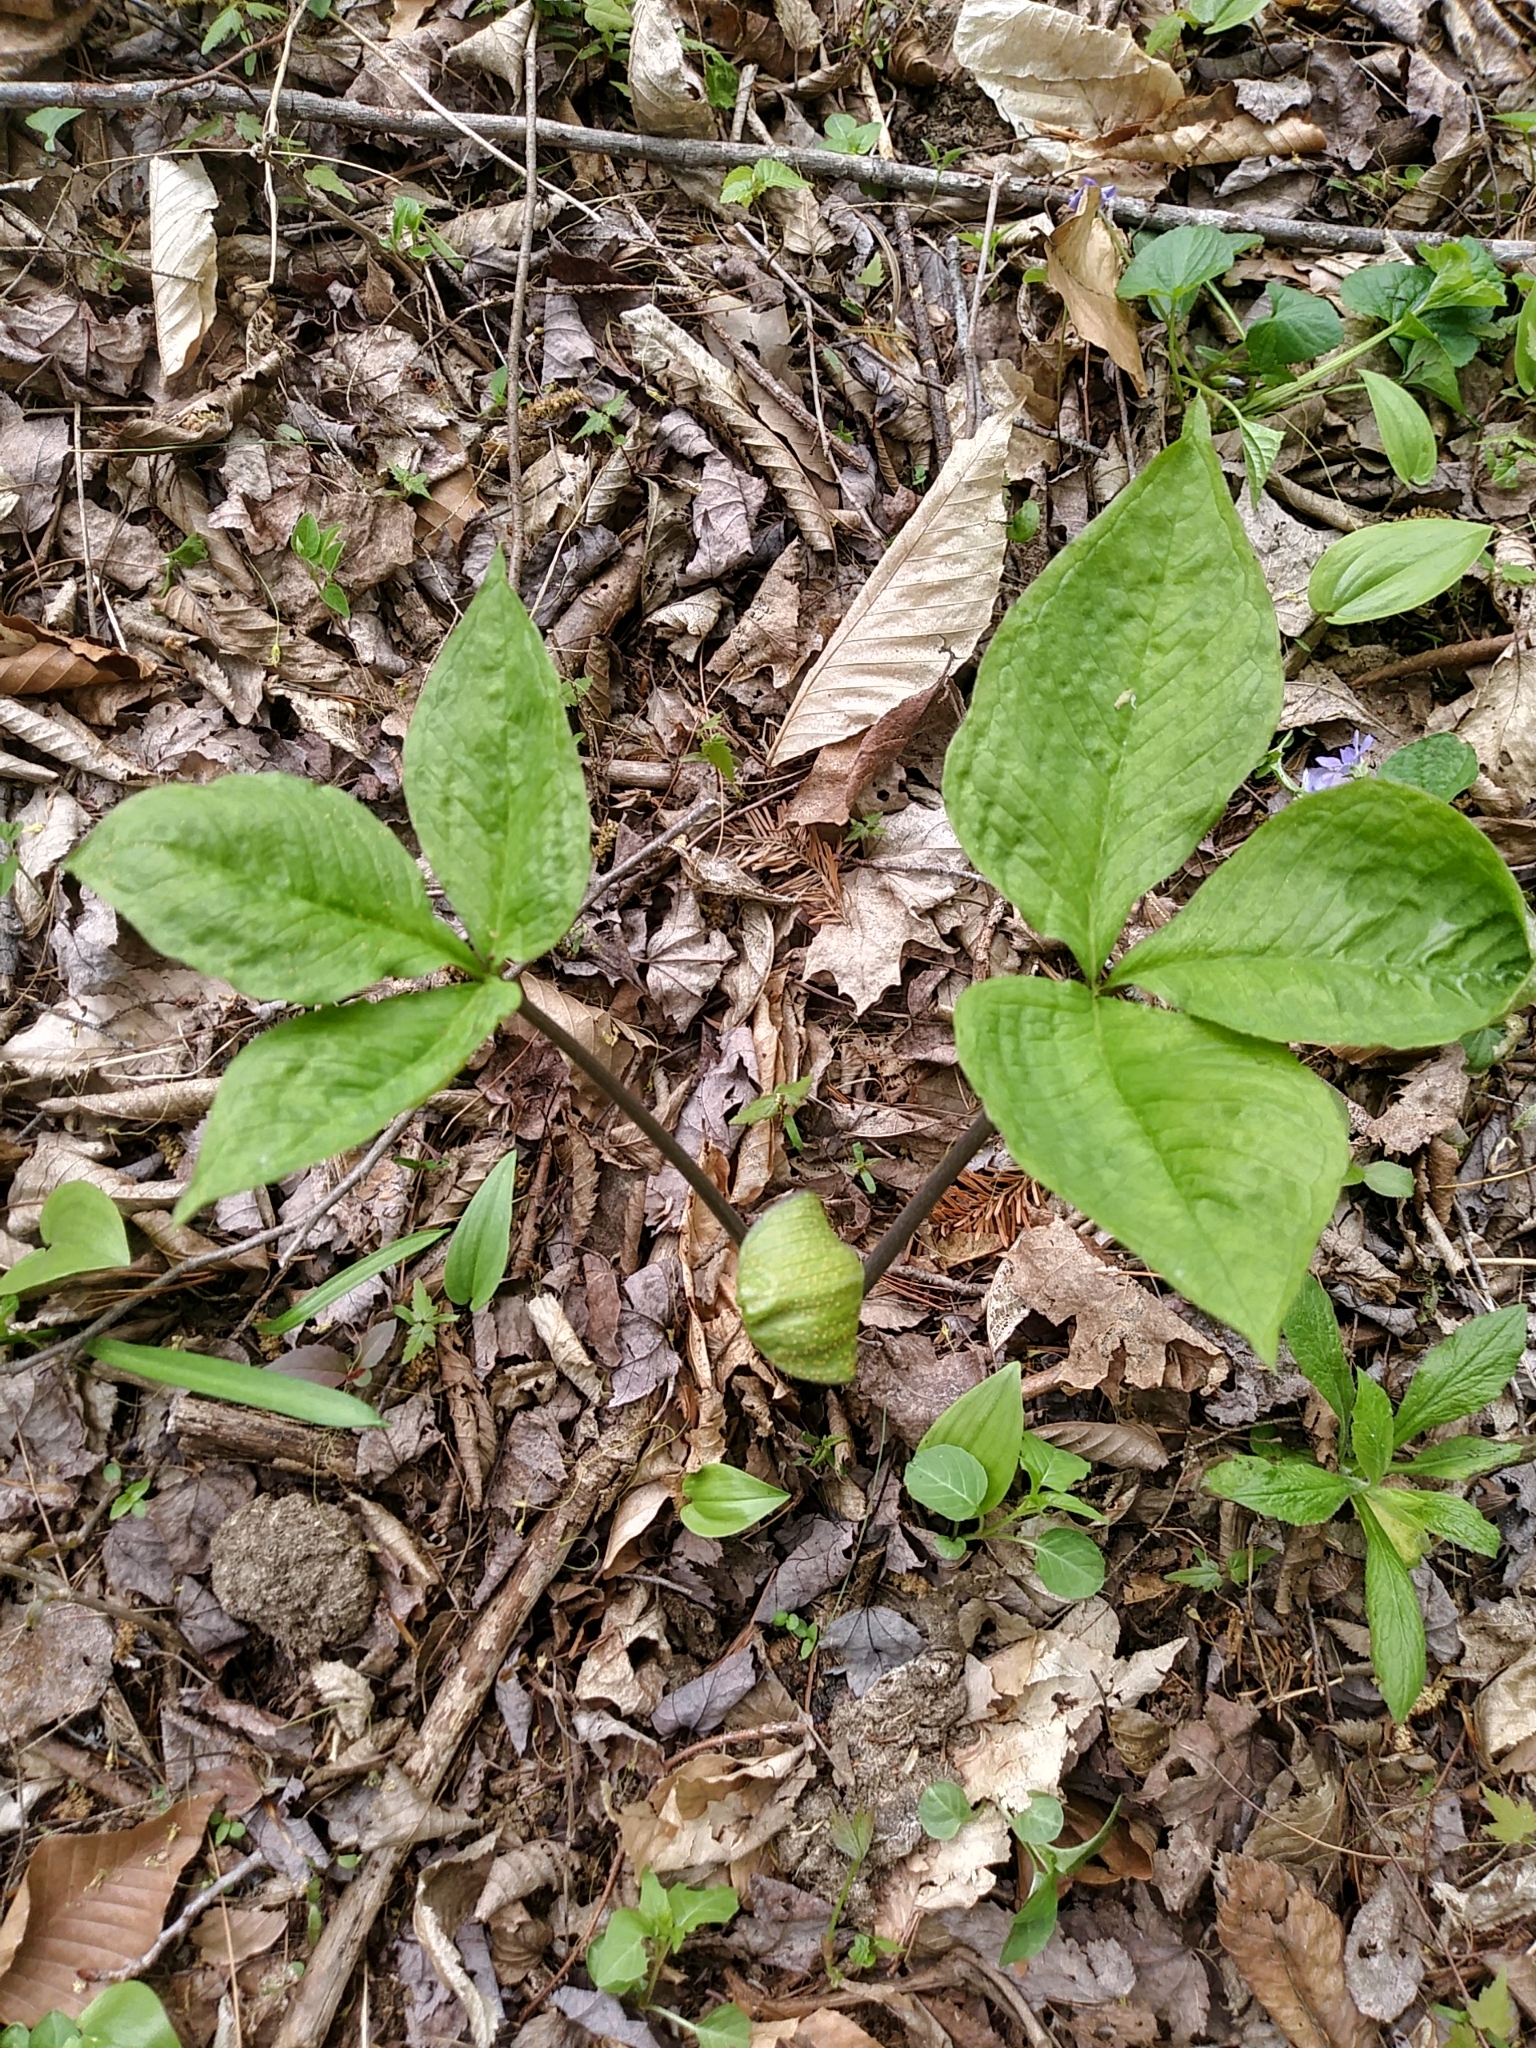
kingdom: Plantae
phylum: Tracheophyta
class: Liliopsida
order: Alismatales
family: Araceae
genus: Arisaema
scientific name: Arisaema triphyllum
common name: Jack-in-the-pulpit
